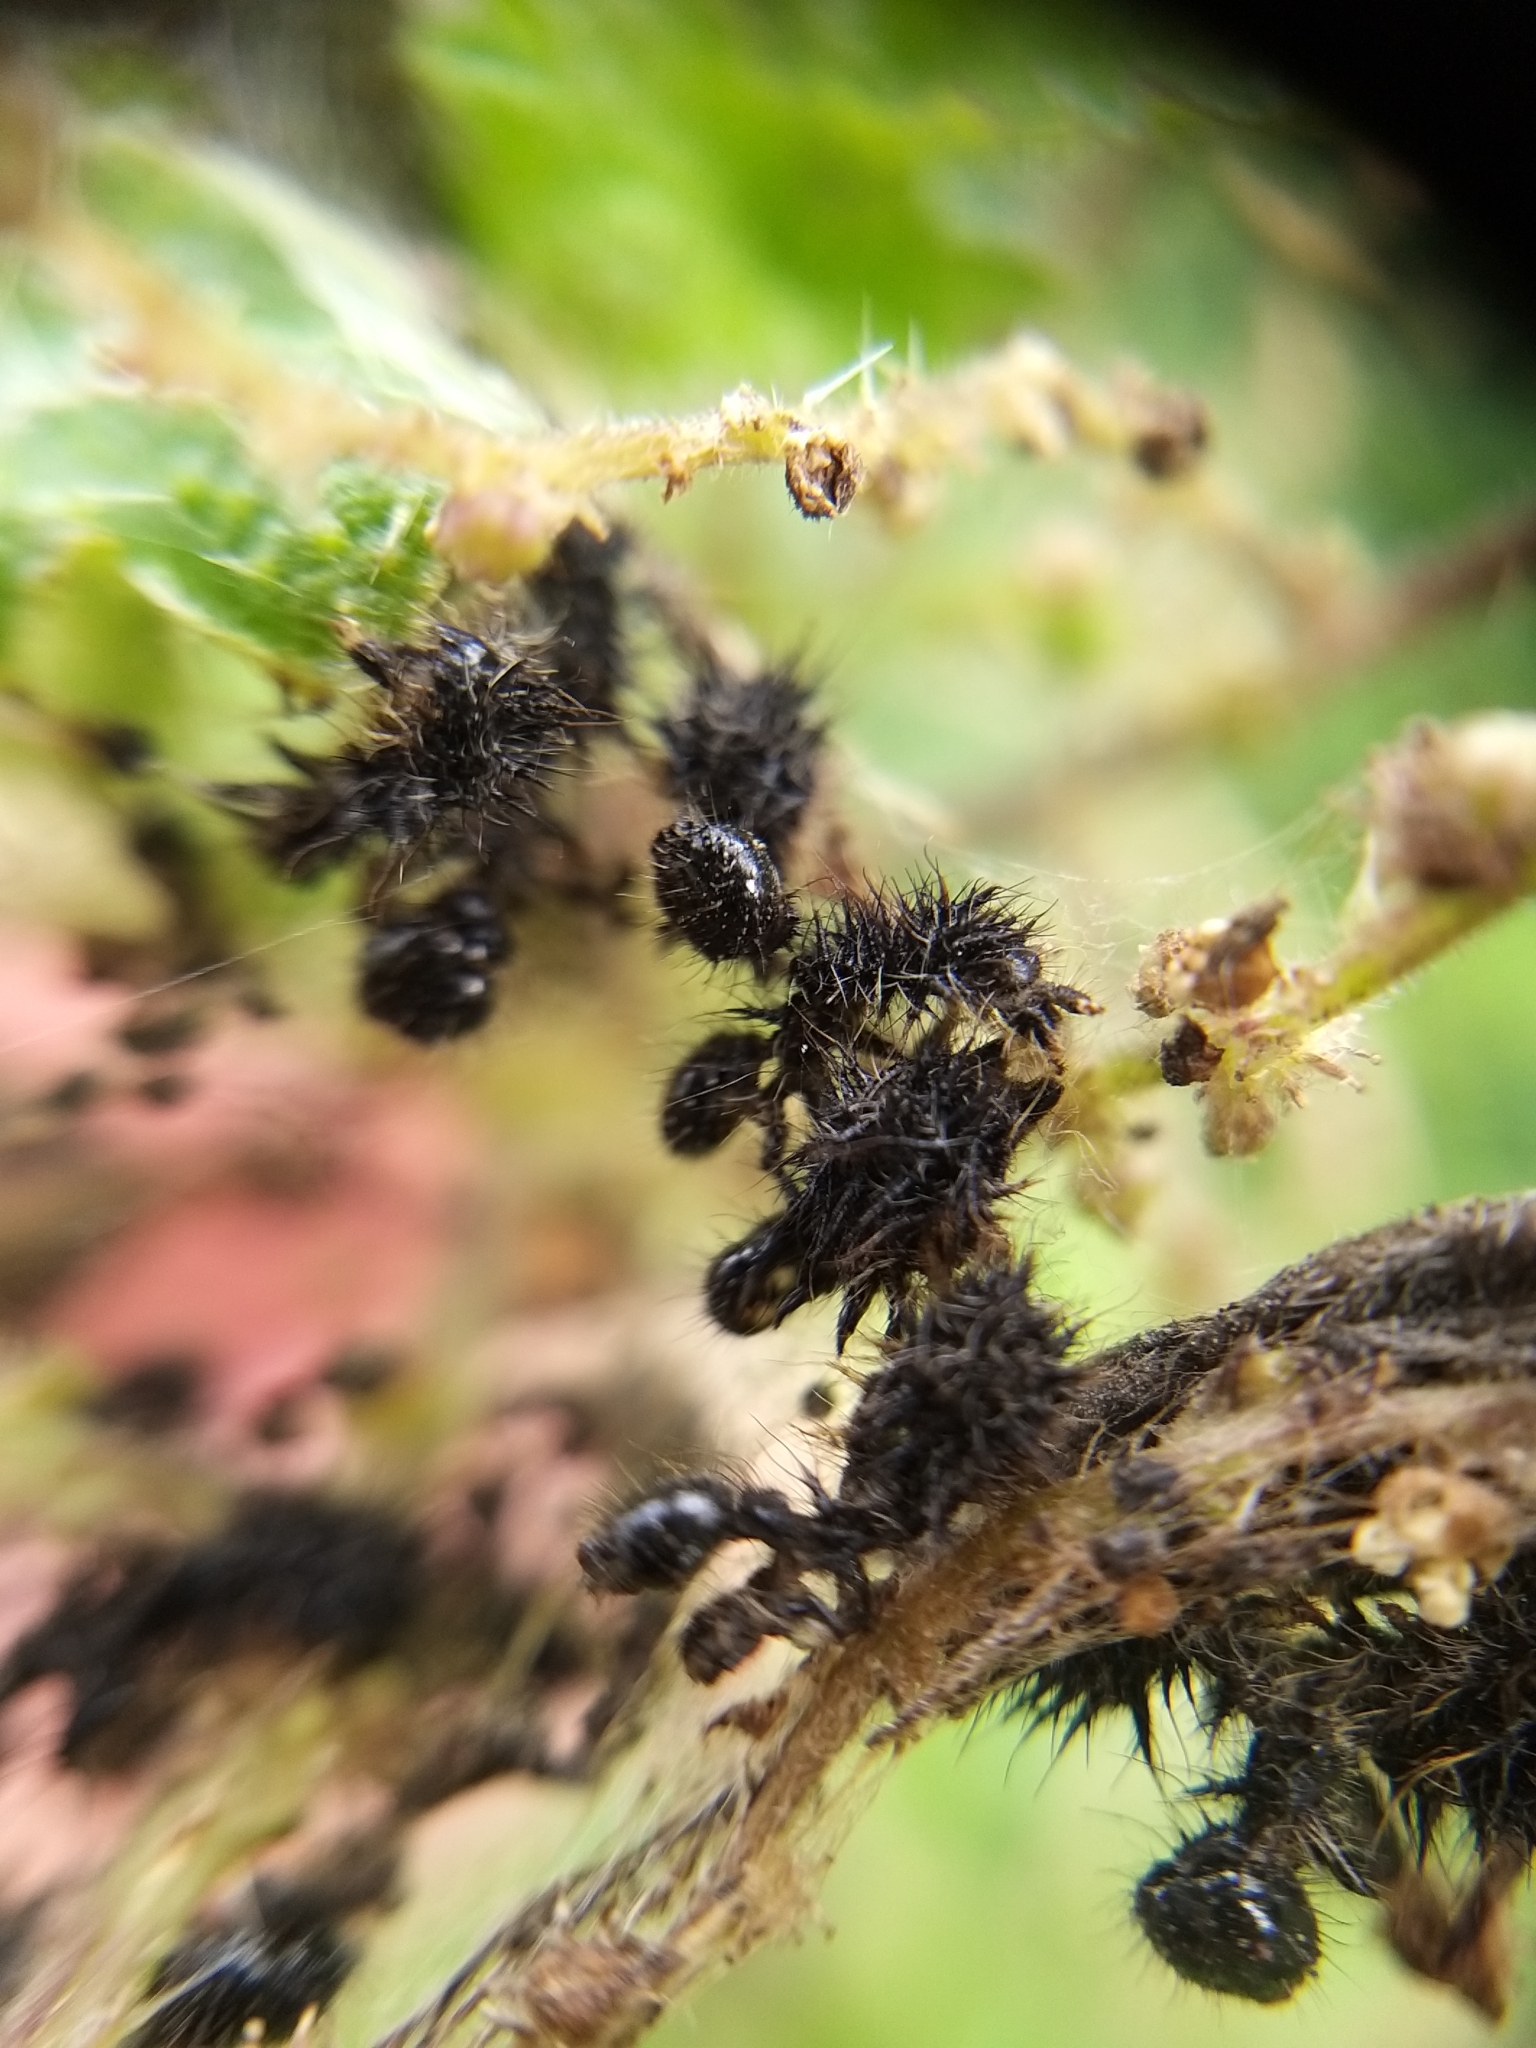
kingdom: Animalia
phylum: Arthropoda
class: Insecta
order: Lepidoptera
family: Nymphalidae
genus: Aglais
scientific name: Aglais io
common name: Peacock
